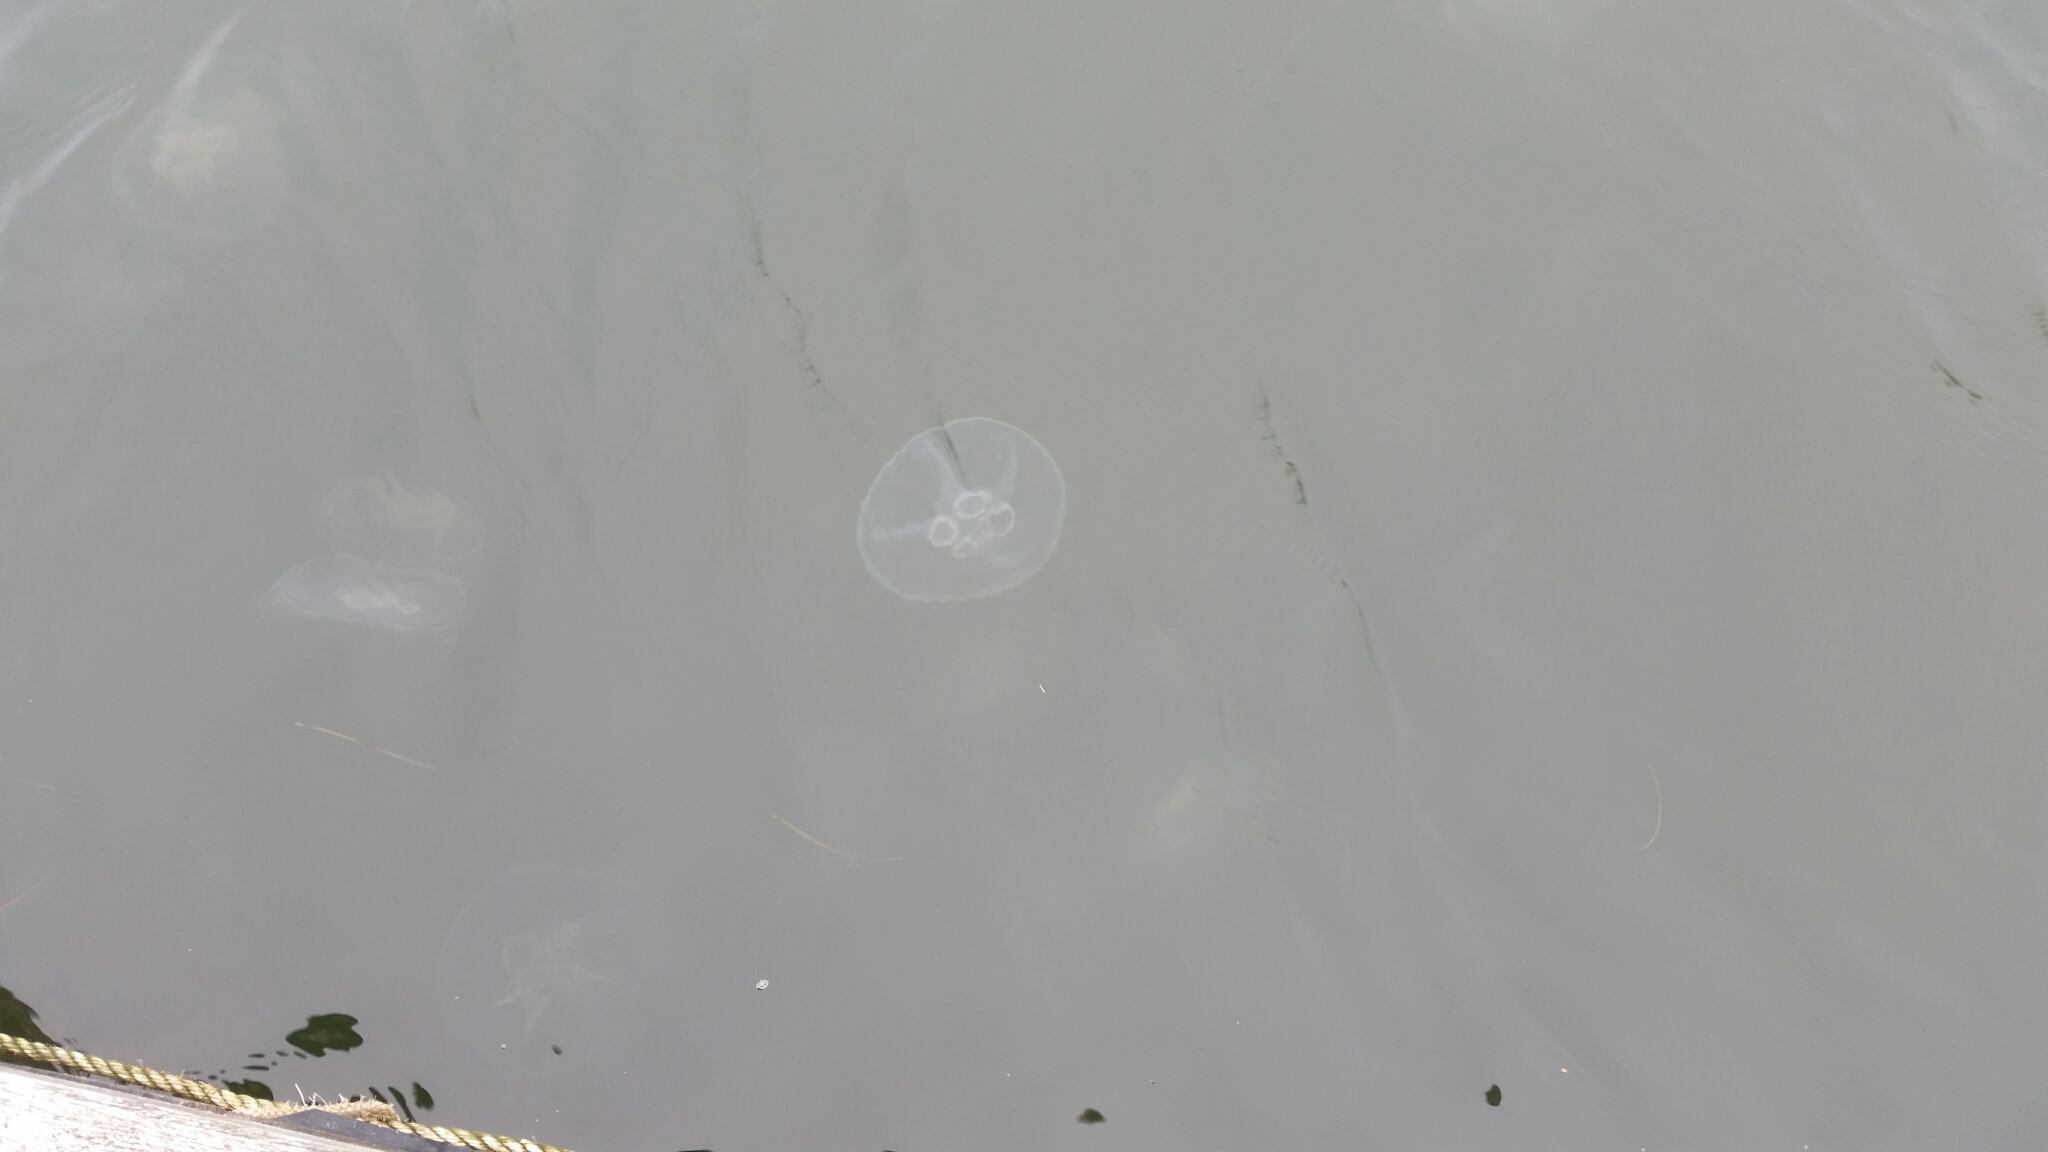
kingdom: Animalia
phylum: Cnidaria
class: Scyphozoa
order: Semaeostomeae
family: Ulmaridae
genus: Aurelia
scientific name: Aurelia aurita
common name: Moon jellyfish
